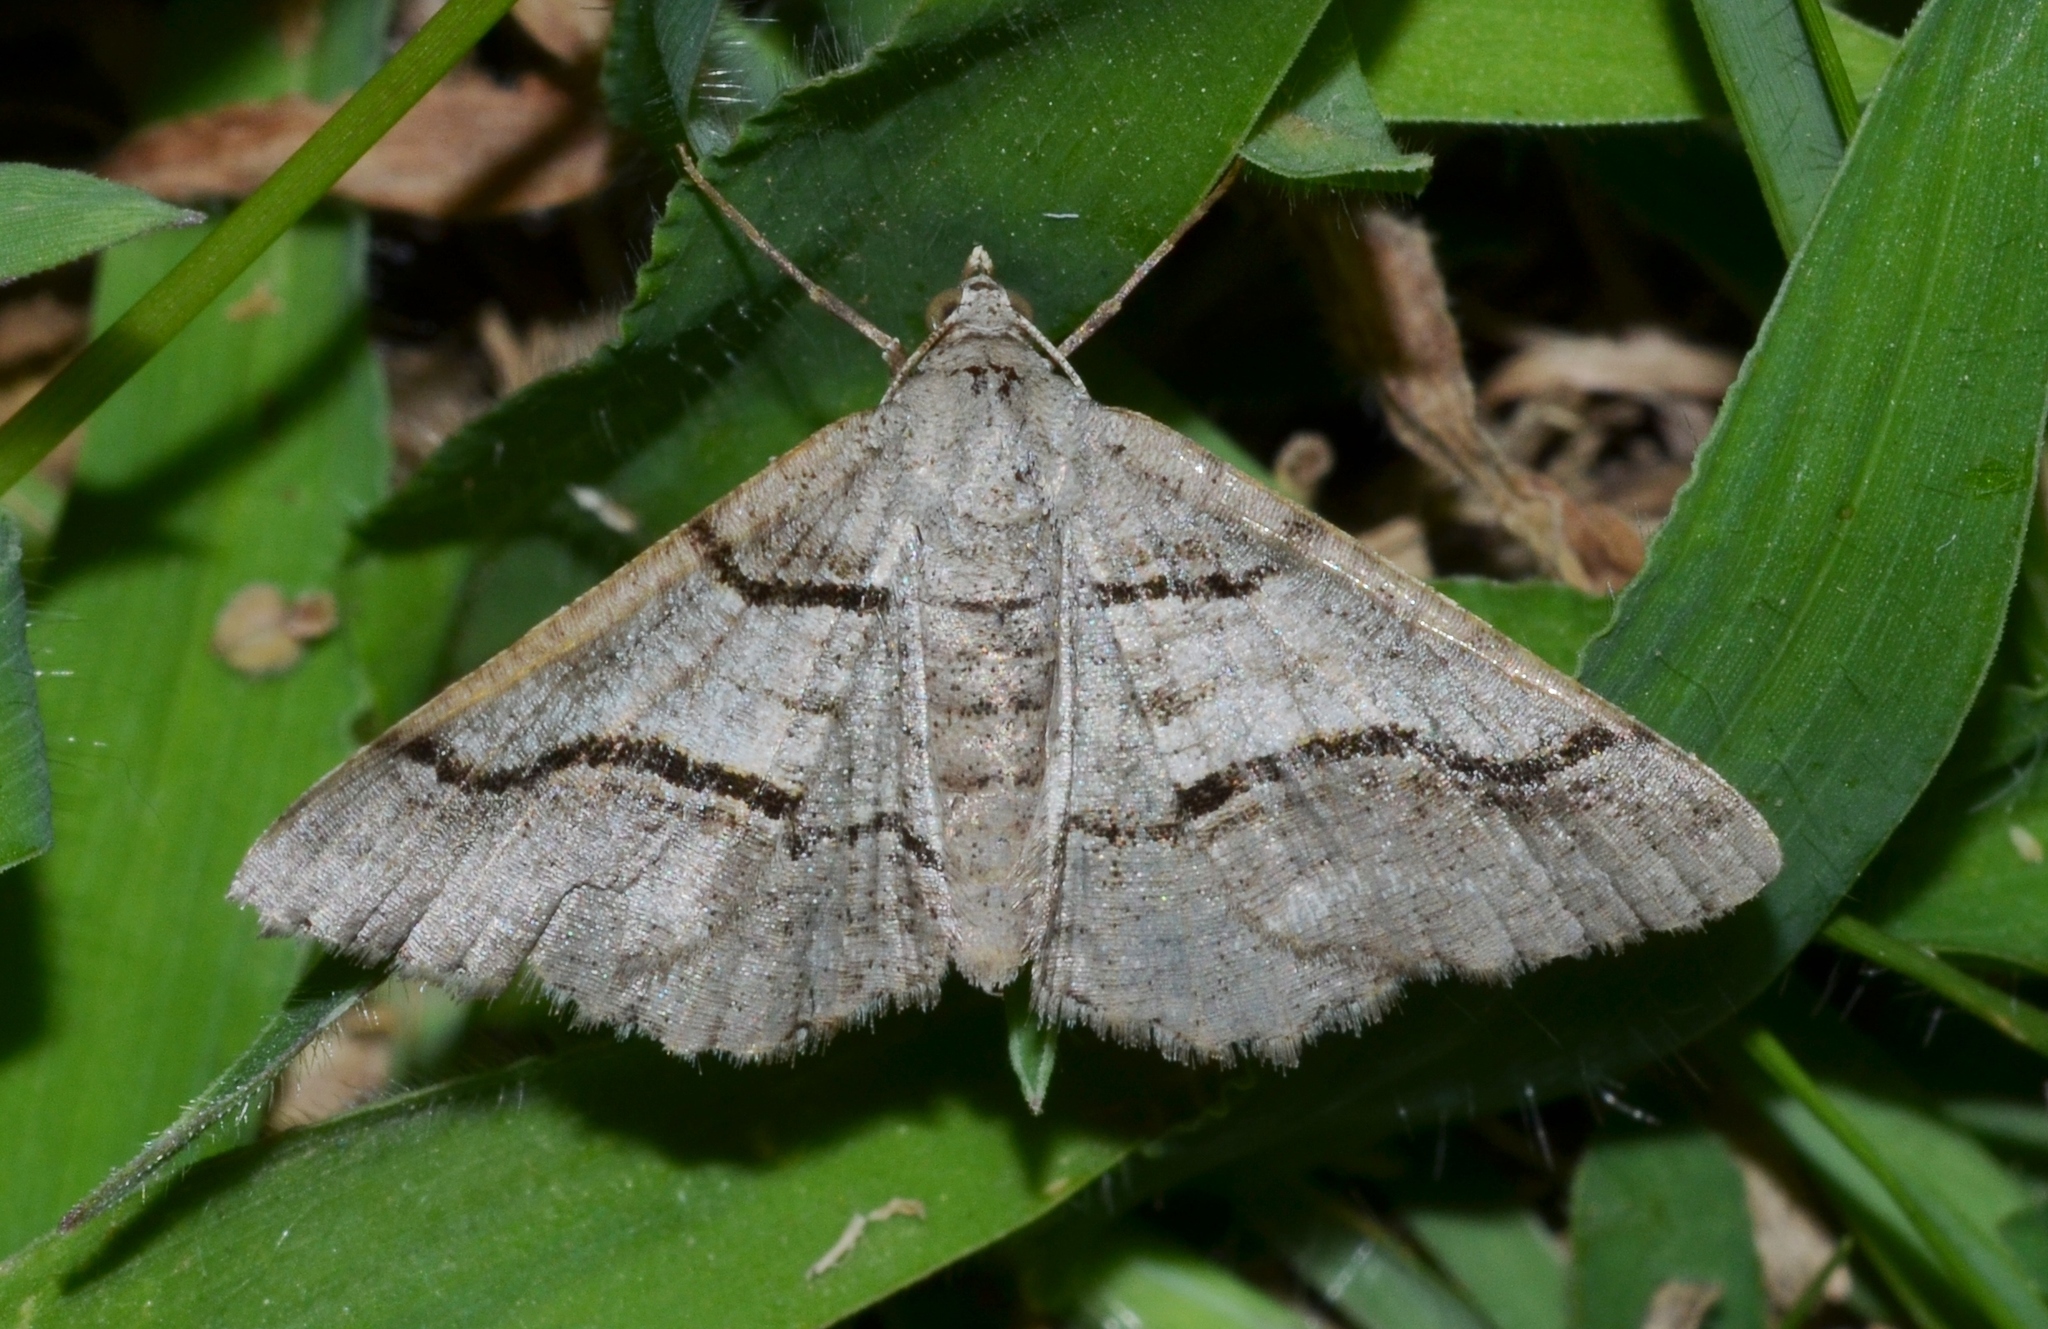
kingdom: Animalia
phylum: Arthropoda
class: Insecta
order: Lepidoptera
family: Geometridae
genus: Digrammia
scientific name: Digrammia continuata
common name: Curve-lined angle
